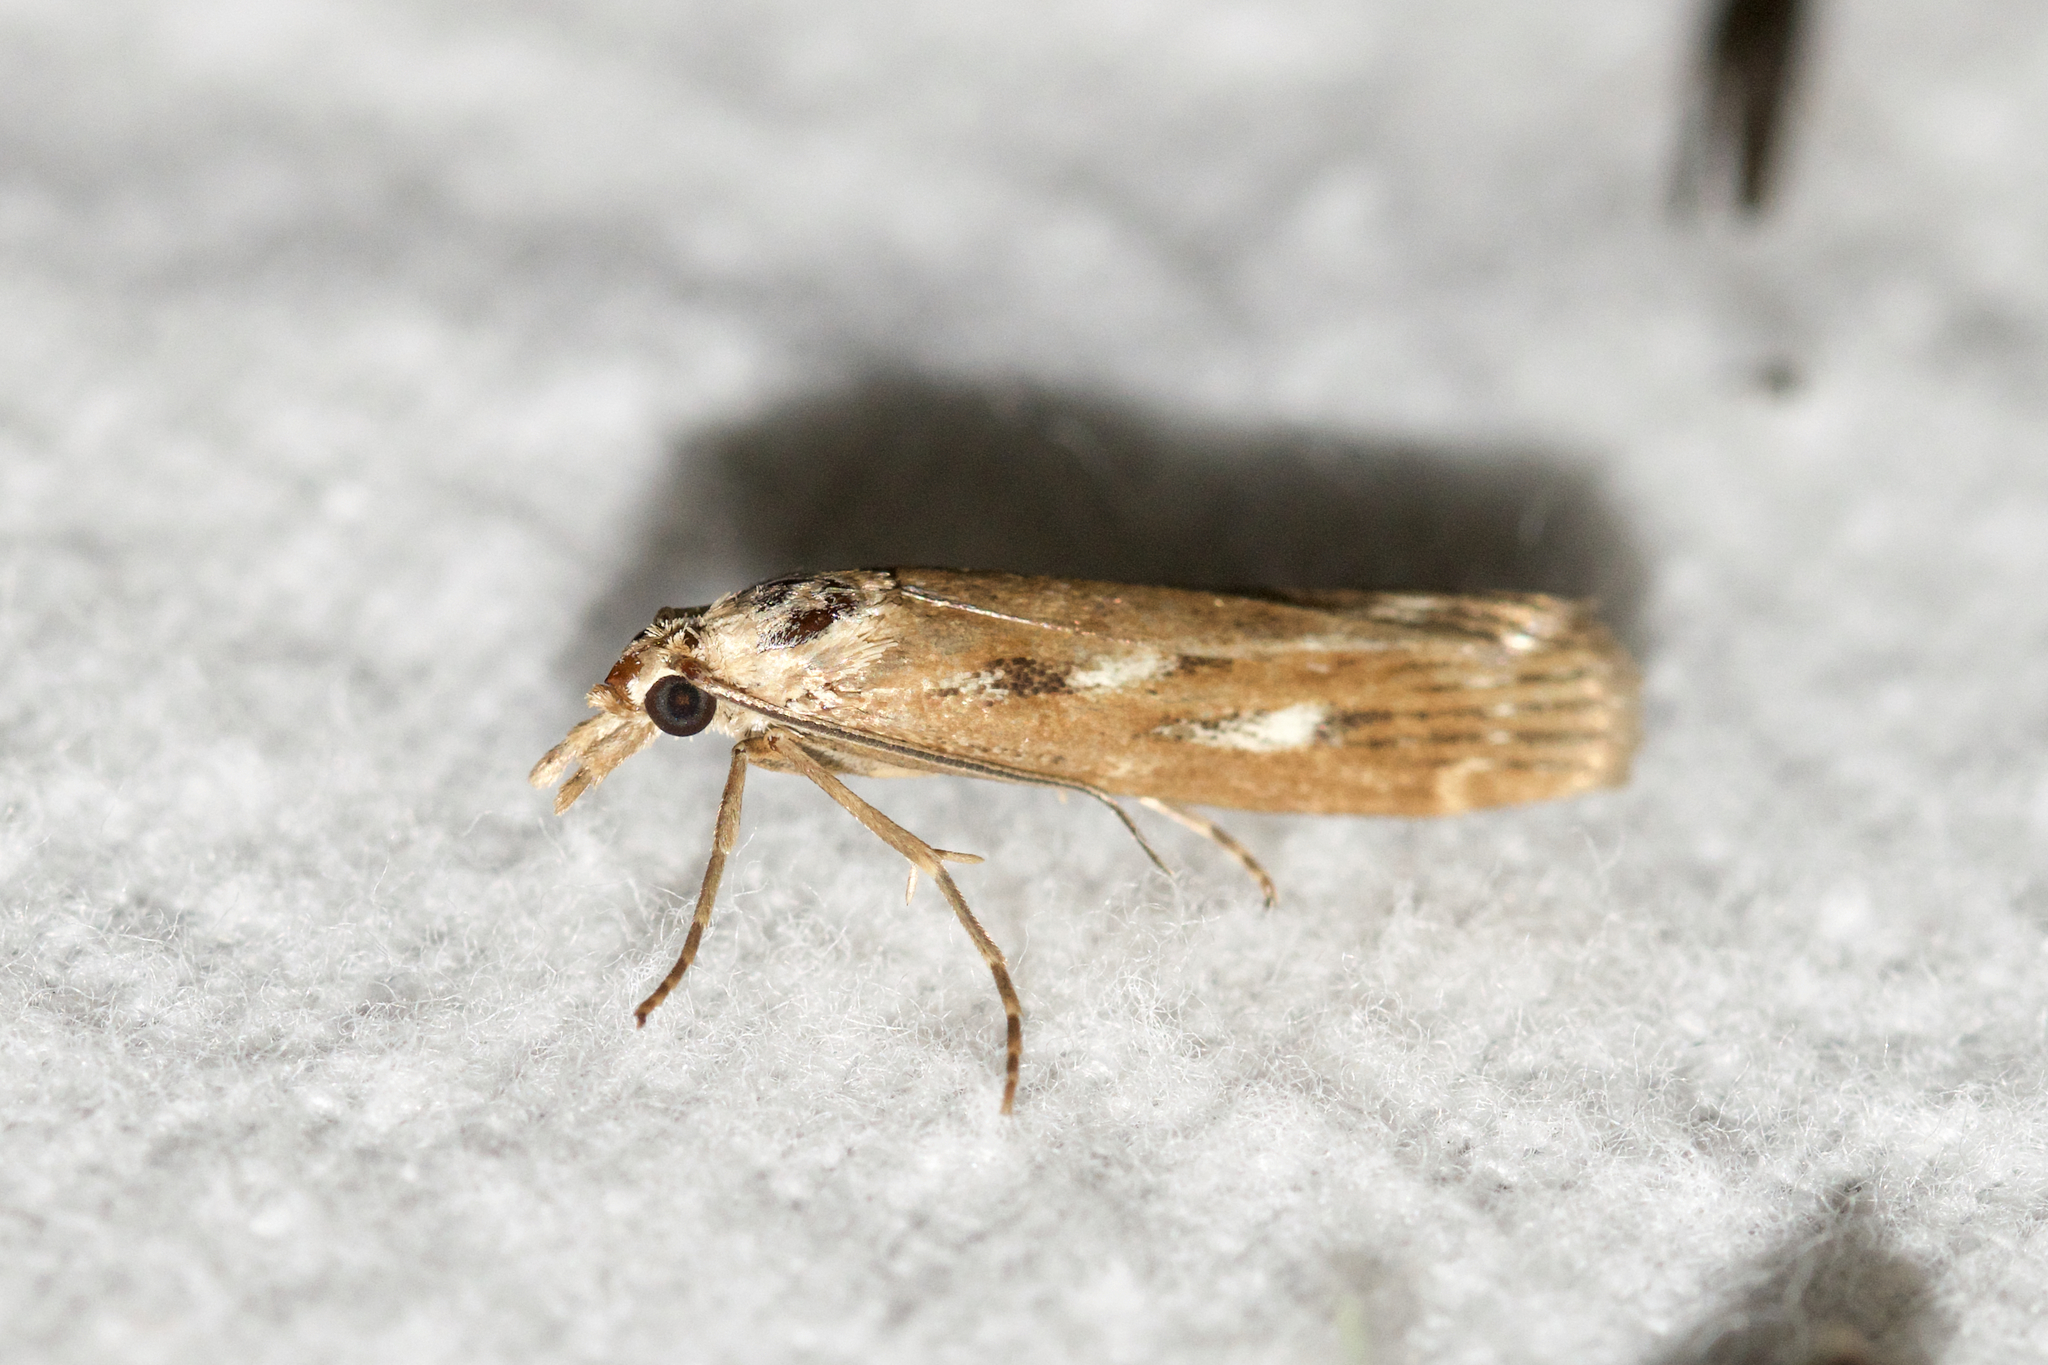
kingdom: Animalia
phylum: Arthropoda
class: Insecta
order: Lepidoptera
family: Crambidae
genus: Occidentalia
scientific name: Occidentalia comptulatalis
